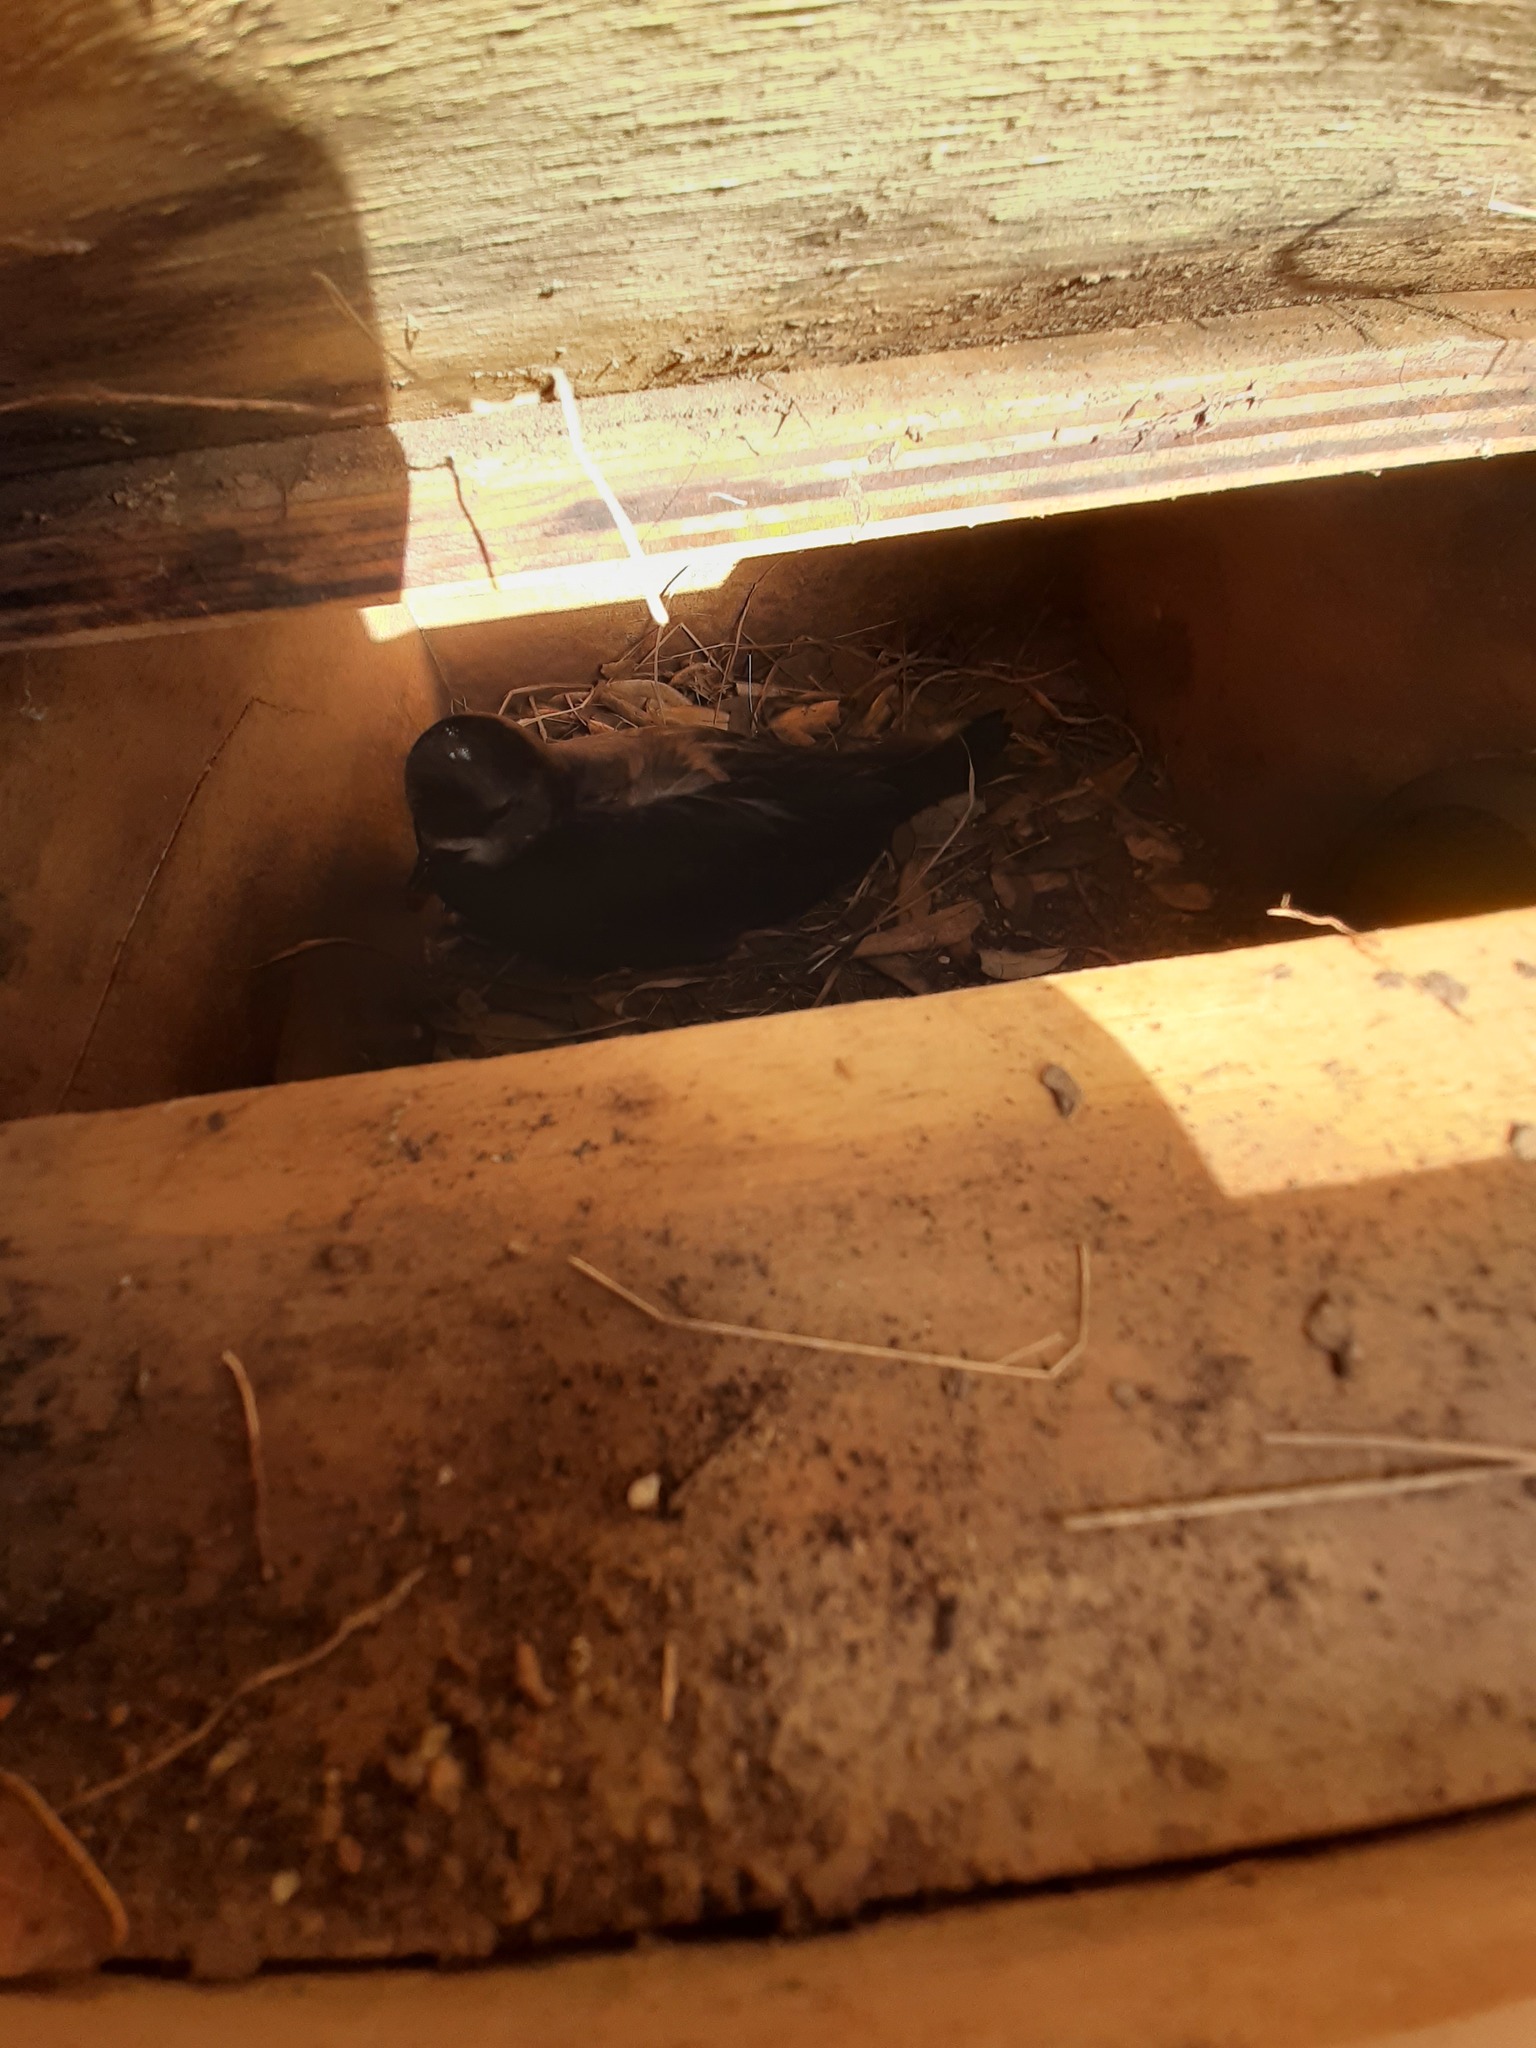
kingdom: Animalia
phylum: Chordata
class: Aves
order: Procellariiformes
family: Procellariidae
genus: Pterodroma
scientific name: Pterodroma macroptera
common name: Great-winged petrel
